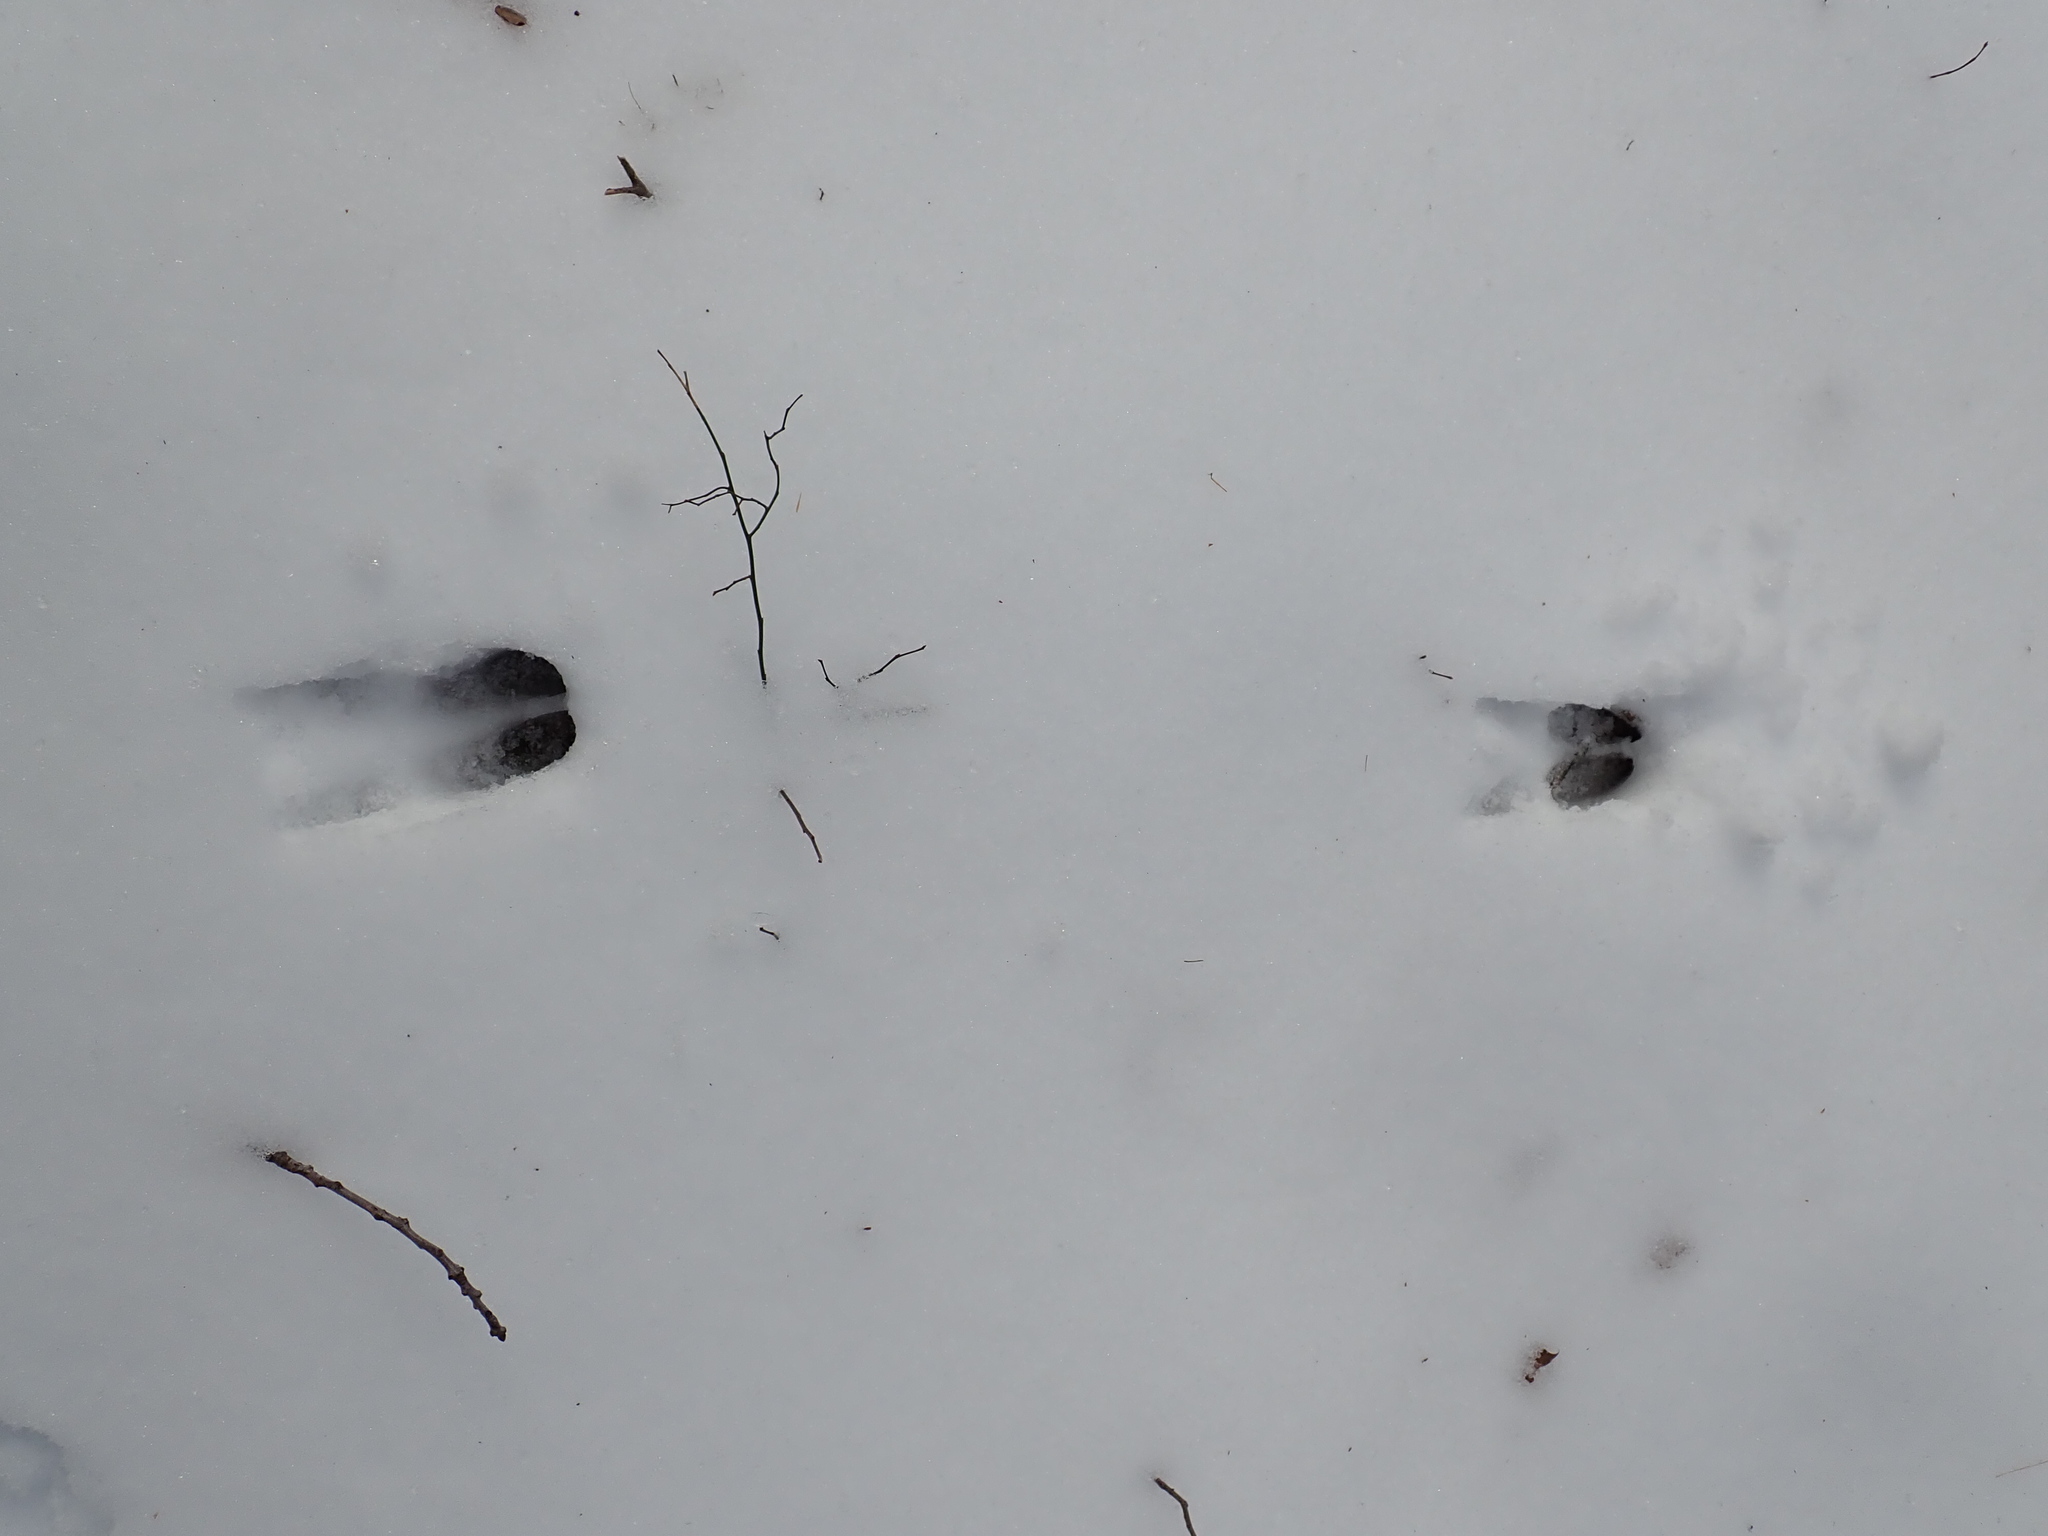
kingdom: Animalia
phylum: Chordata
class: Mammalia
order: Artiodactyla
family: Cervidae
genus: Odocoileus
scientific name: Odocoileus virginianus
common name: White-tailed deer
